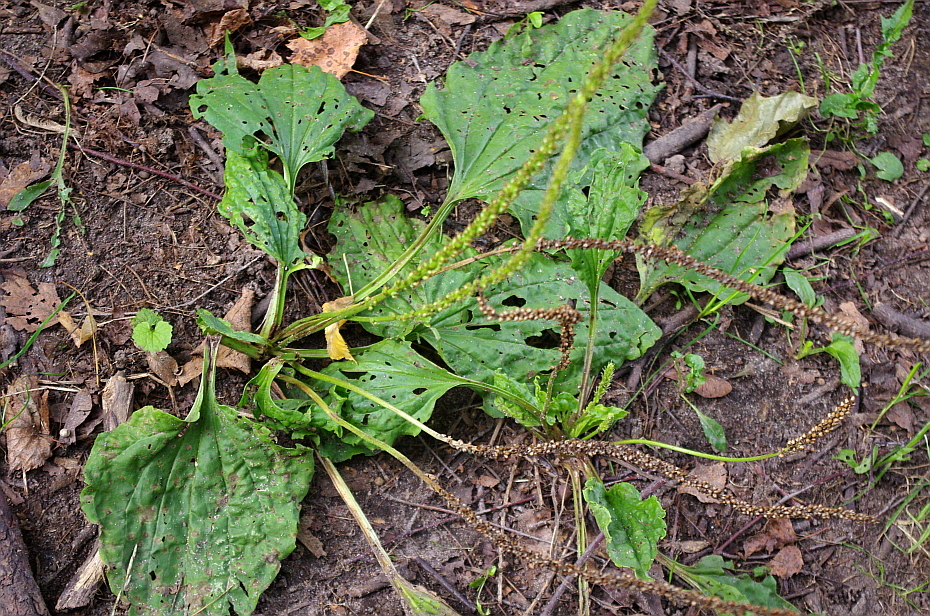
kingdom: Plantae
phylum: Tracheophyta
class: Magnoliopsida
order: Lamiales
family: Plantaginaceae
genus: Plantago
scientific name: Plantago major
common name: Common plantain
